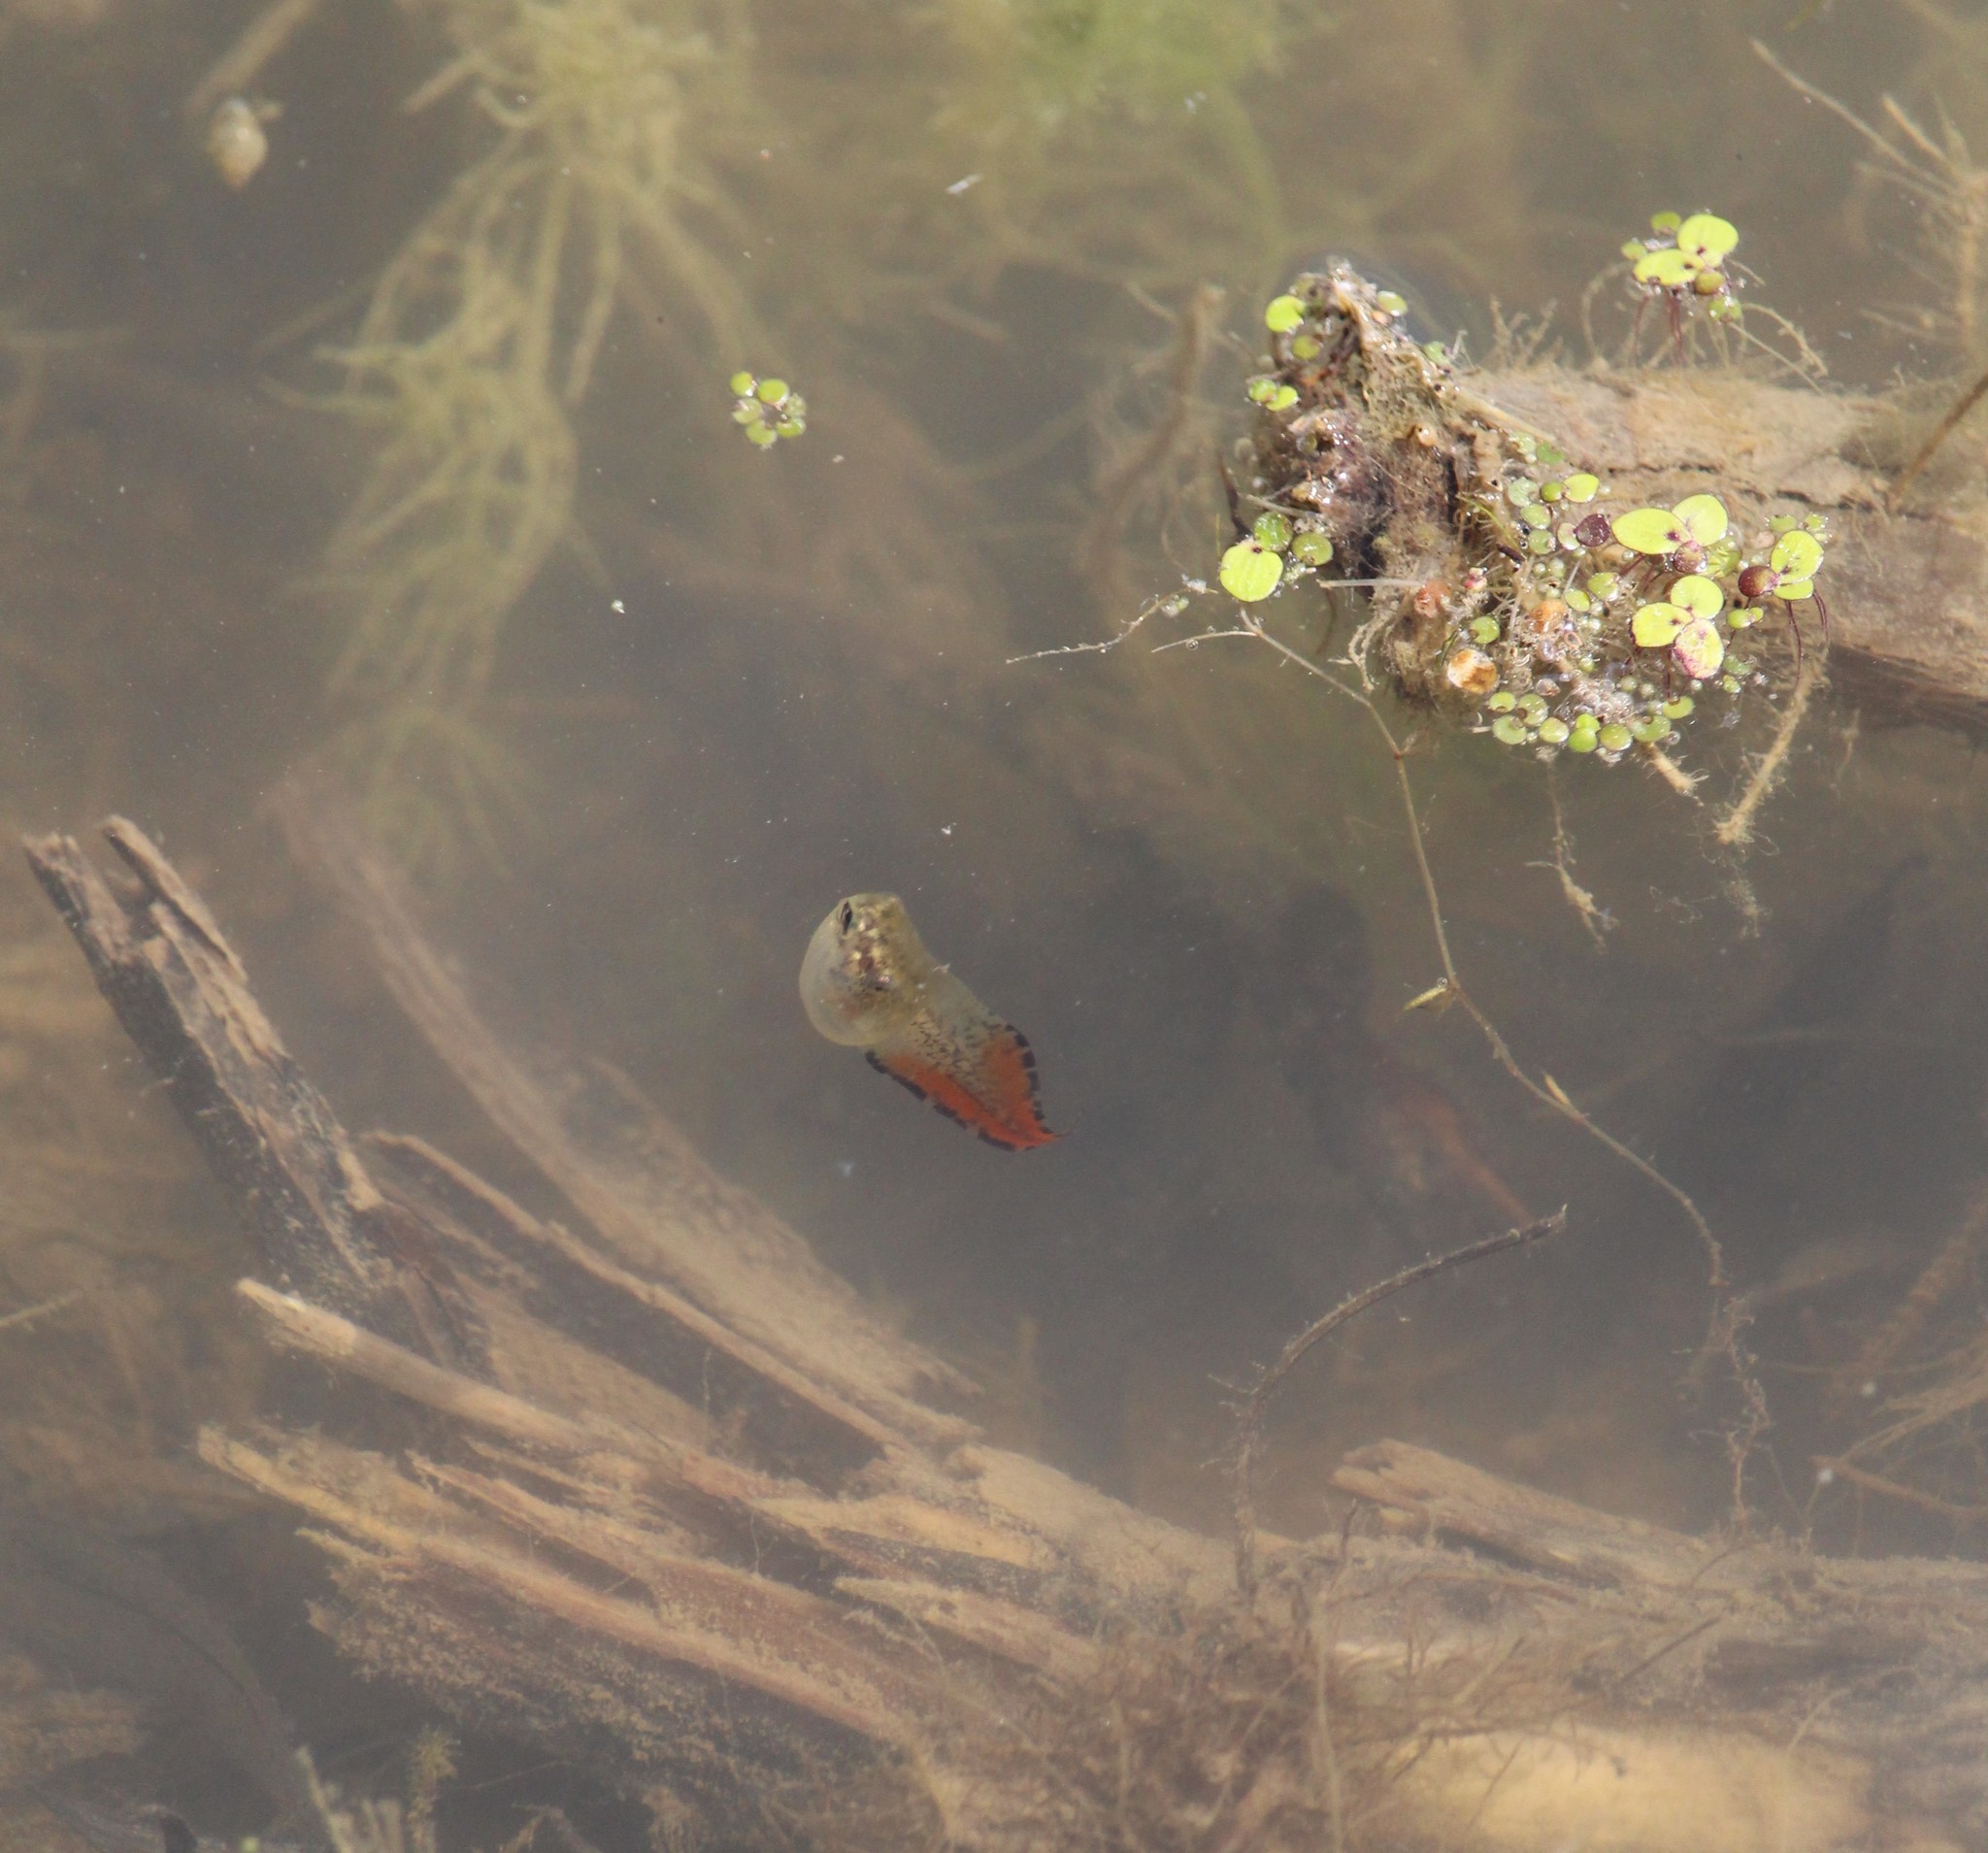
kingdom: Animalia
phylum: Chordata
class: Amphibia
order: Anura
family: Hylidae
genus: Dryophytes
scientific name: Dryophytes versicolor
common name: Gray treefrog
